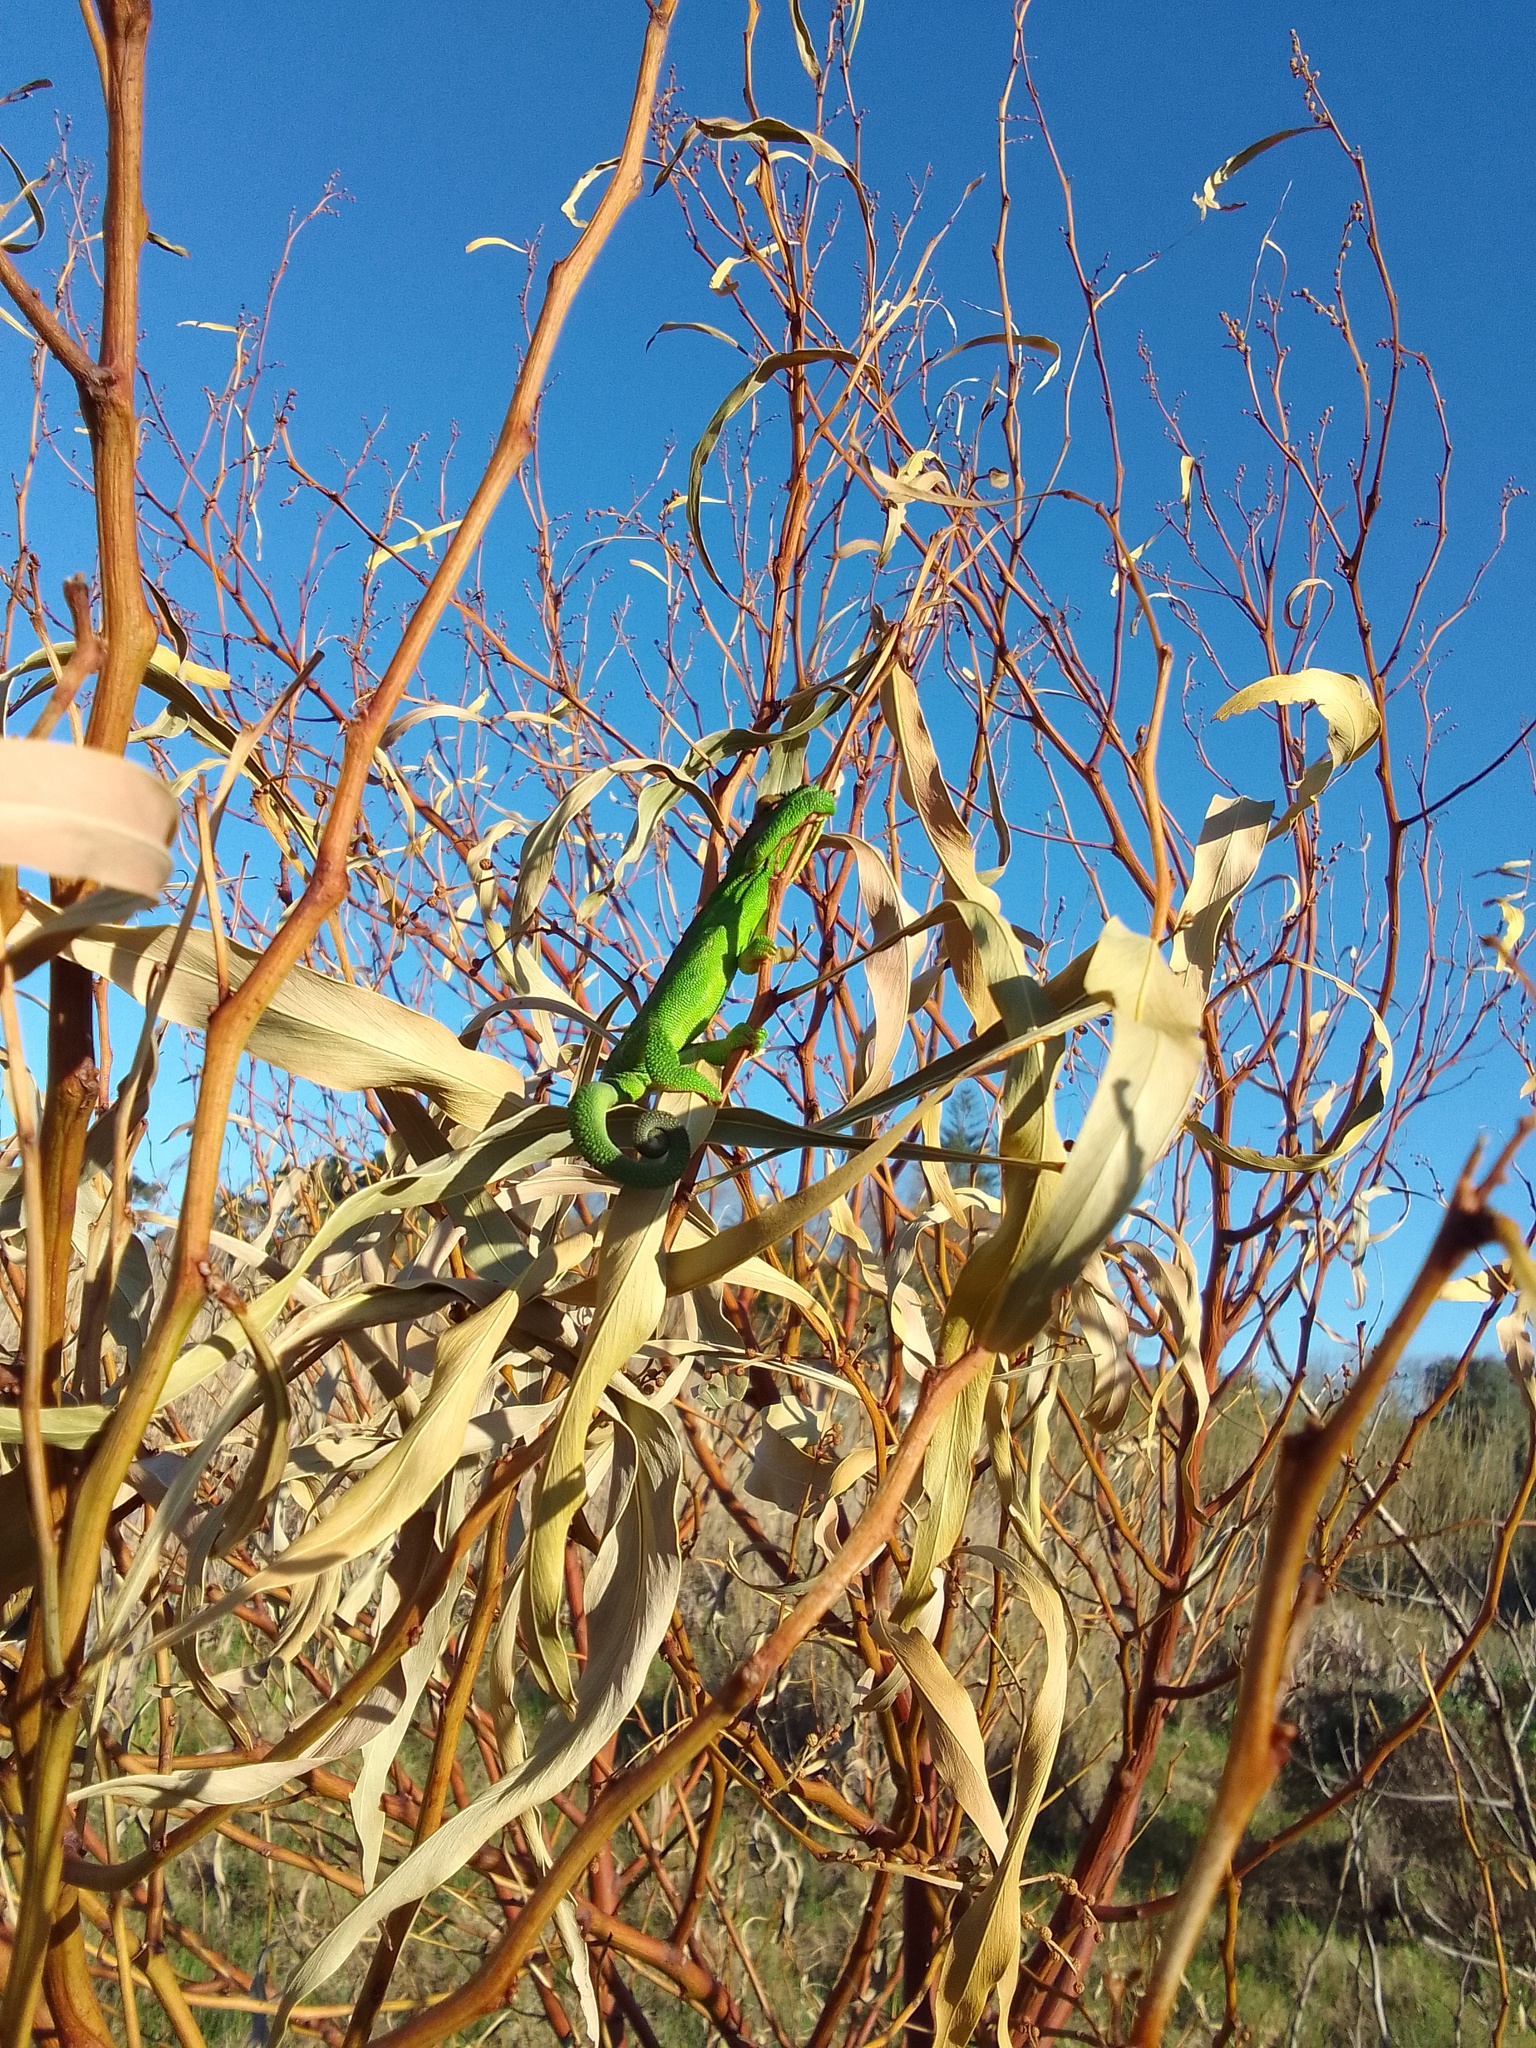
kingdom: Plantae
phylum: Tracheophyta
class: Magnoliopsida
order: Fabales
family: Fabaceae
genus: Acacia
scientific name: Acacia saligna
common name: Orange wattle
